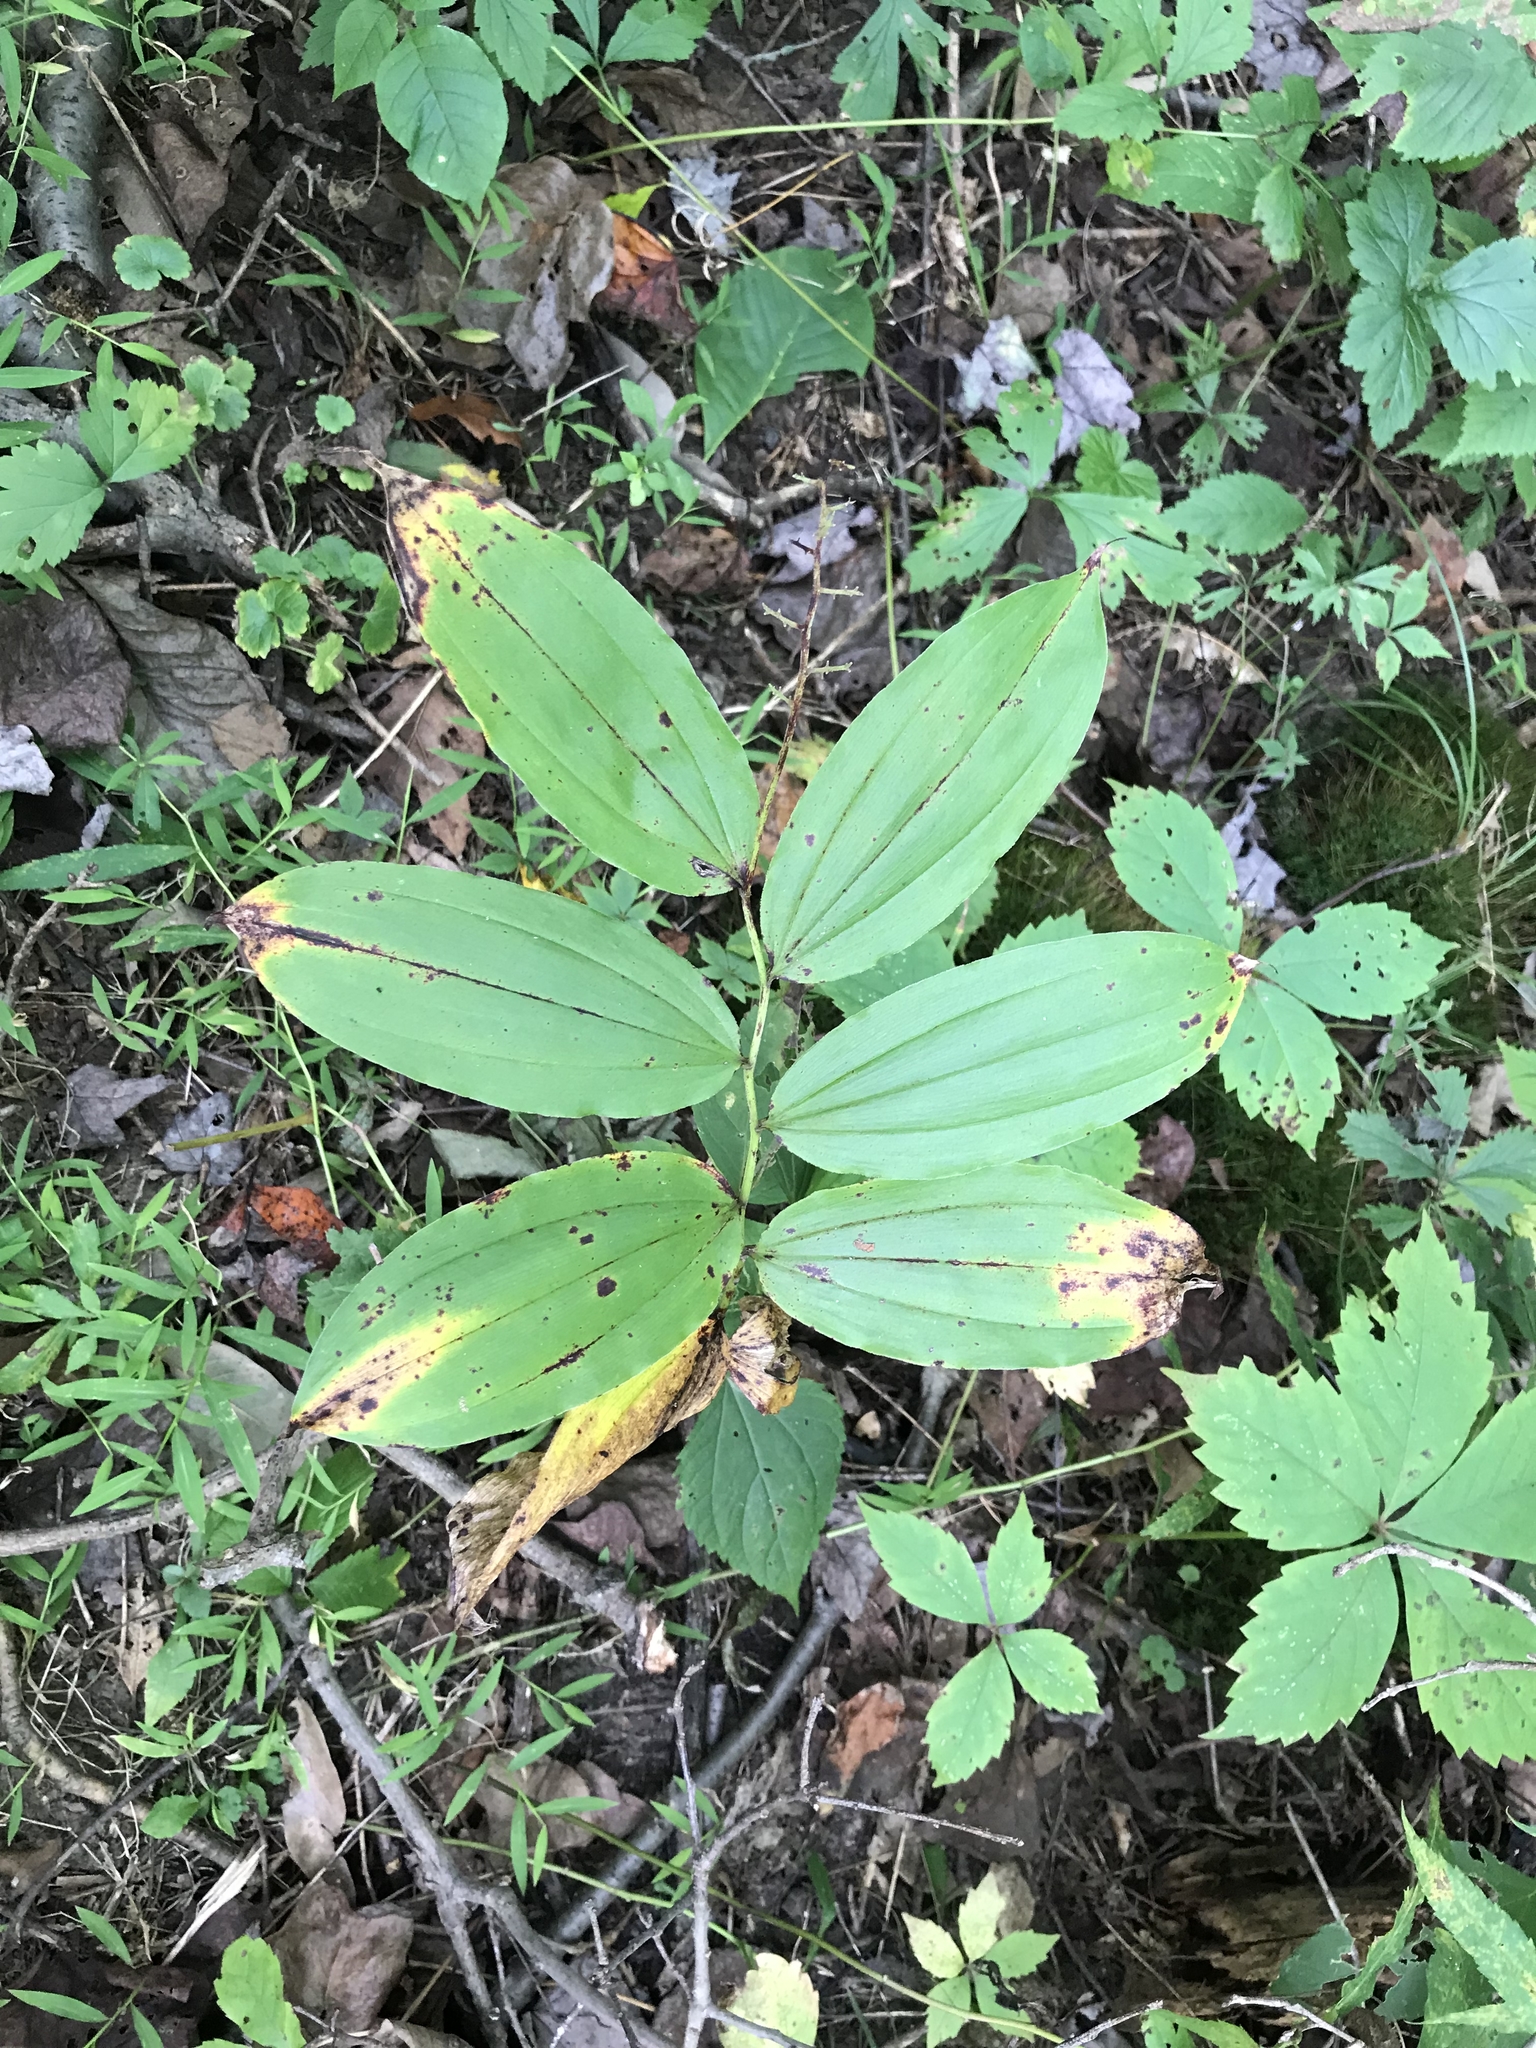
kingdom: Plantae
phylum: Tracheophyta
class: Liliopsida
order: Asparagales
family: Asparagaceae
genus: Maianthemum
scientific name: Maianthemum racemosum
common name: False spikenard
